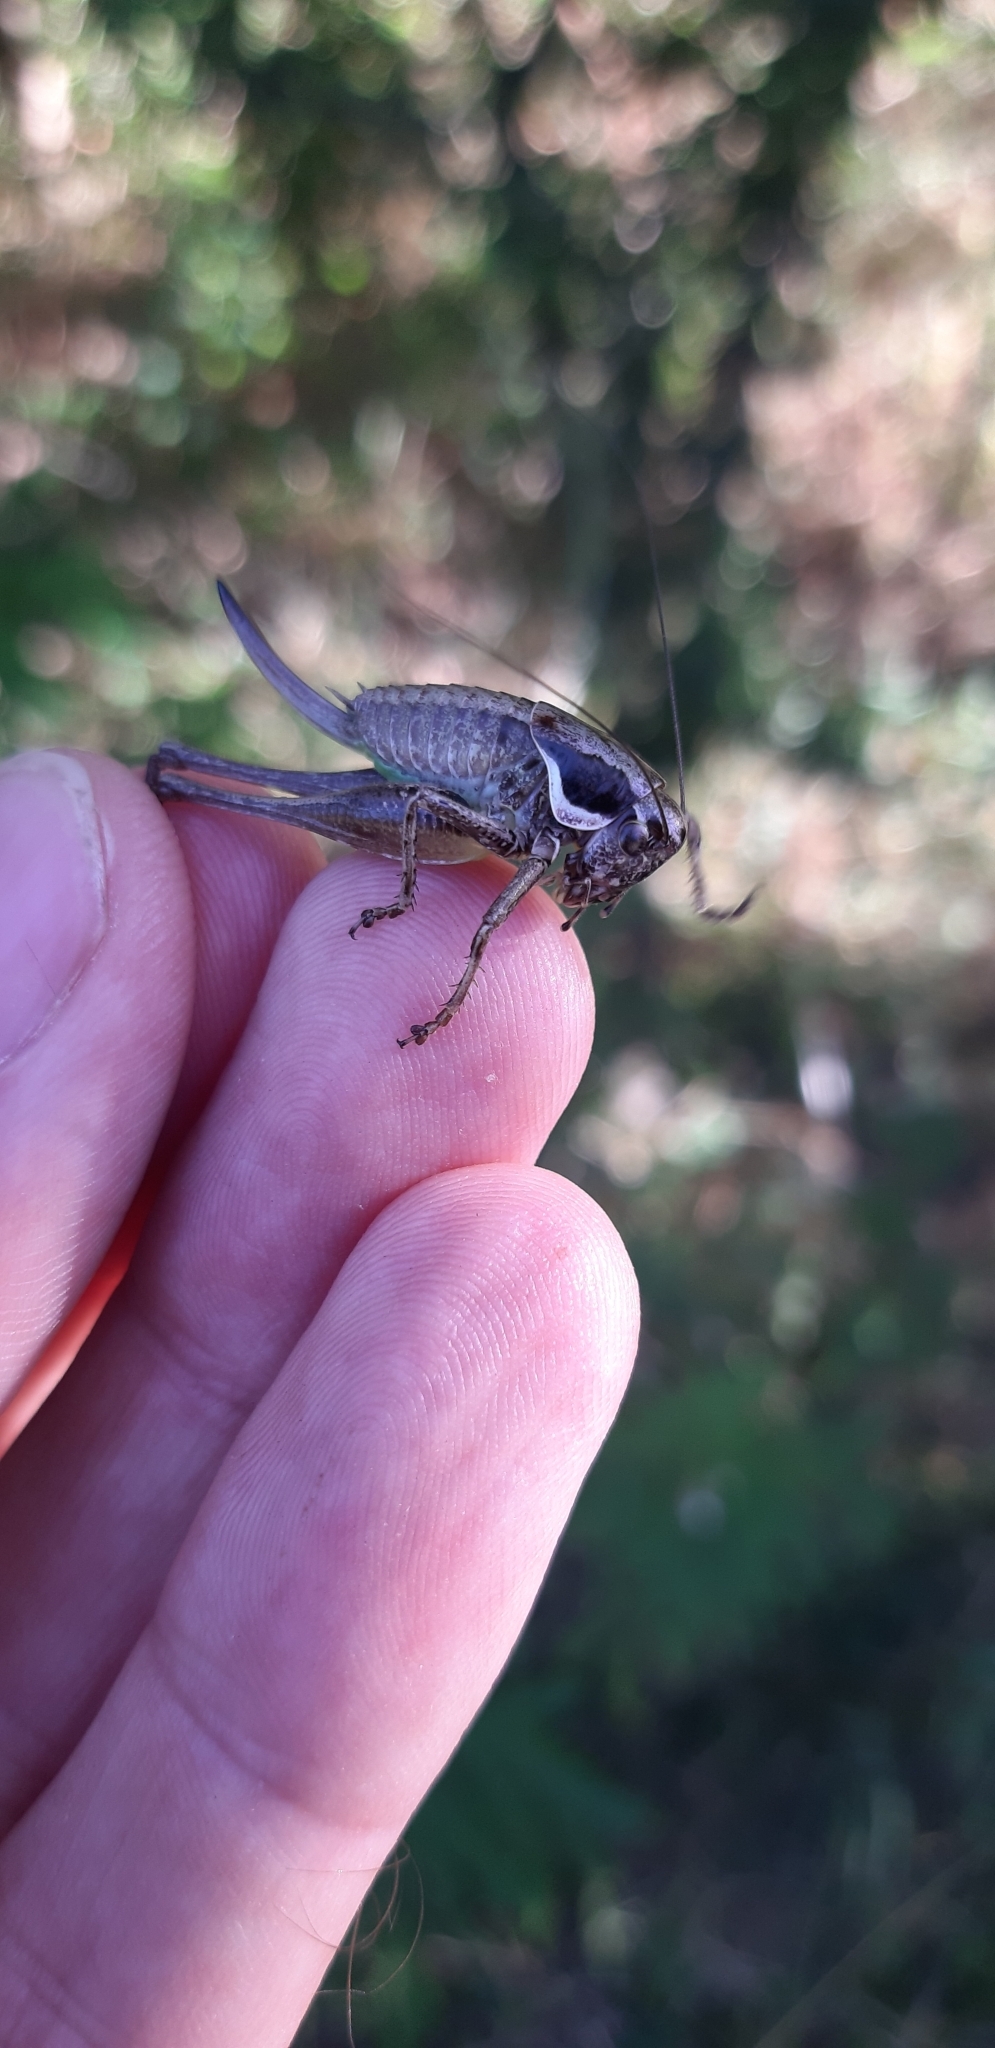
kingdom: Animalia
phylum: Arthropoda
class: Insecta
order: Orthoptera
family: Tettigoniidae
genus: Pholidoptera
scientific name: Pholidoptera fallax
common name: Fischer's bush-cricket
